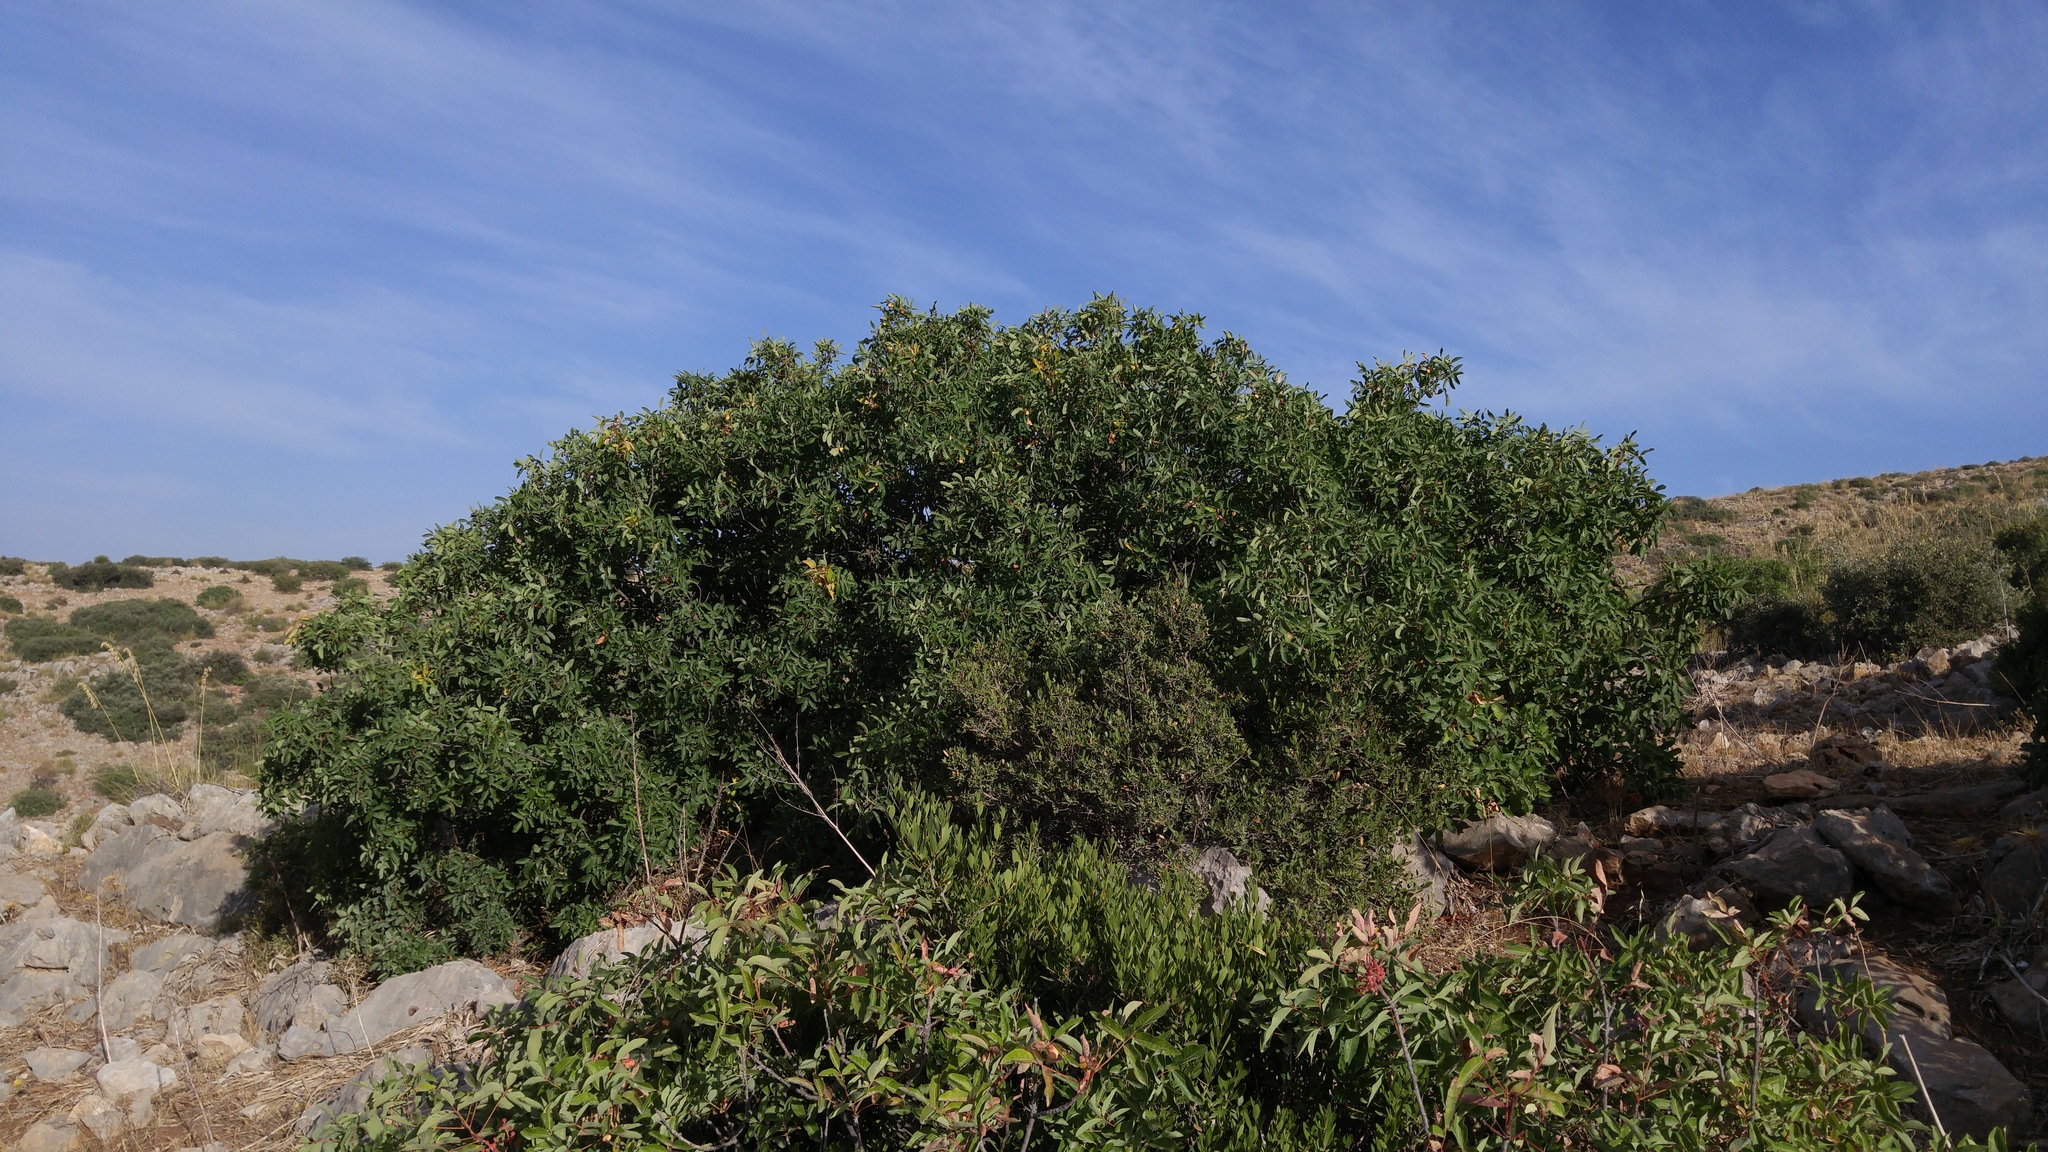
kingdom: Plantae
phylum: Tracheophyta
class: Magnoliopsida
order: Sapindales
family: Anacardiaceae
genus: Pistacia
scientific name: Pistacia terebinthus
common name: Terebinth
